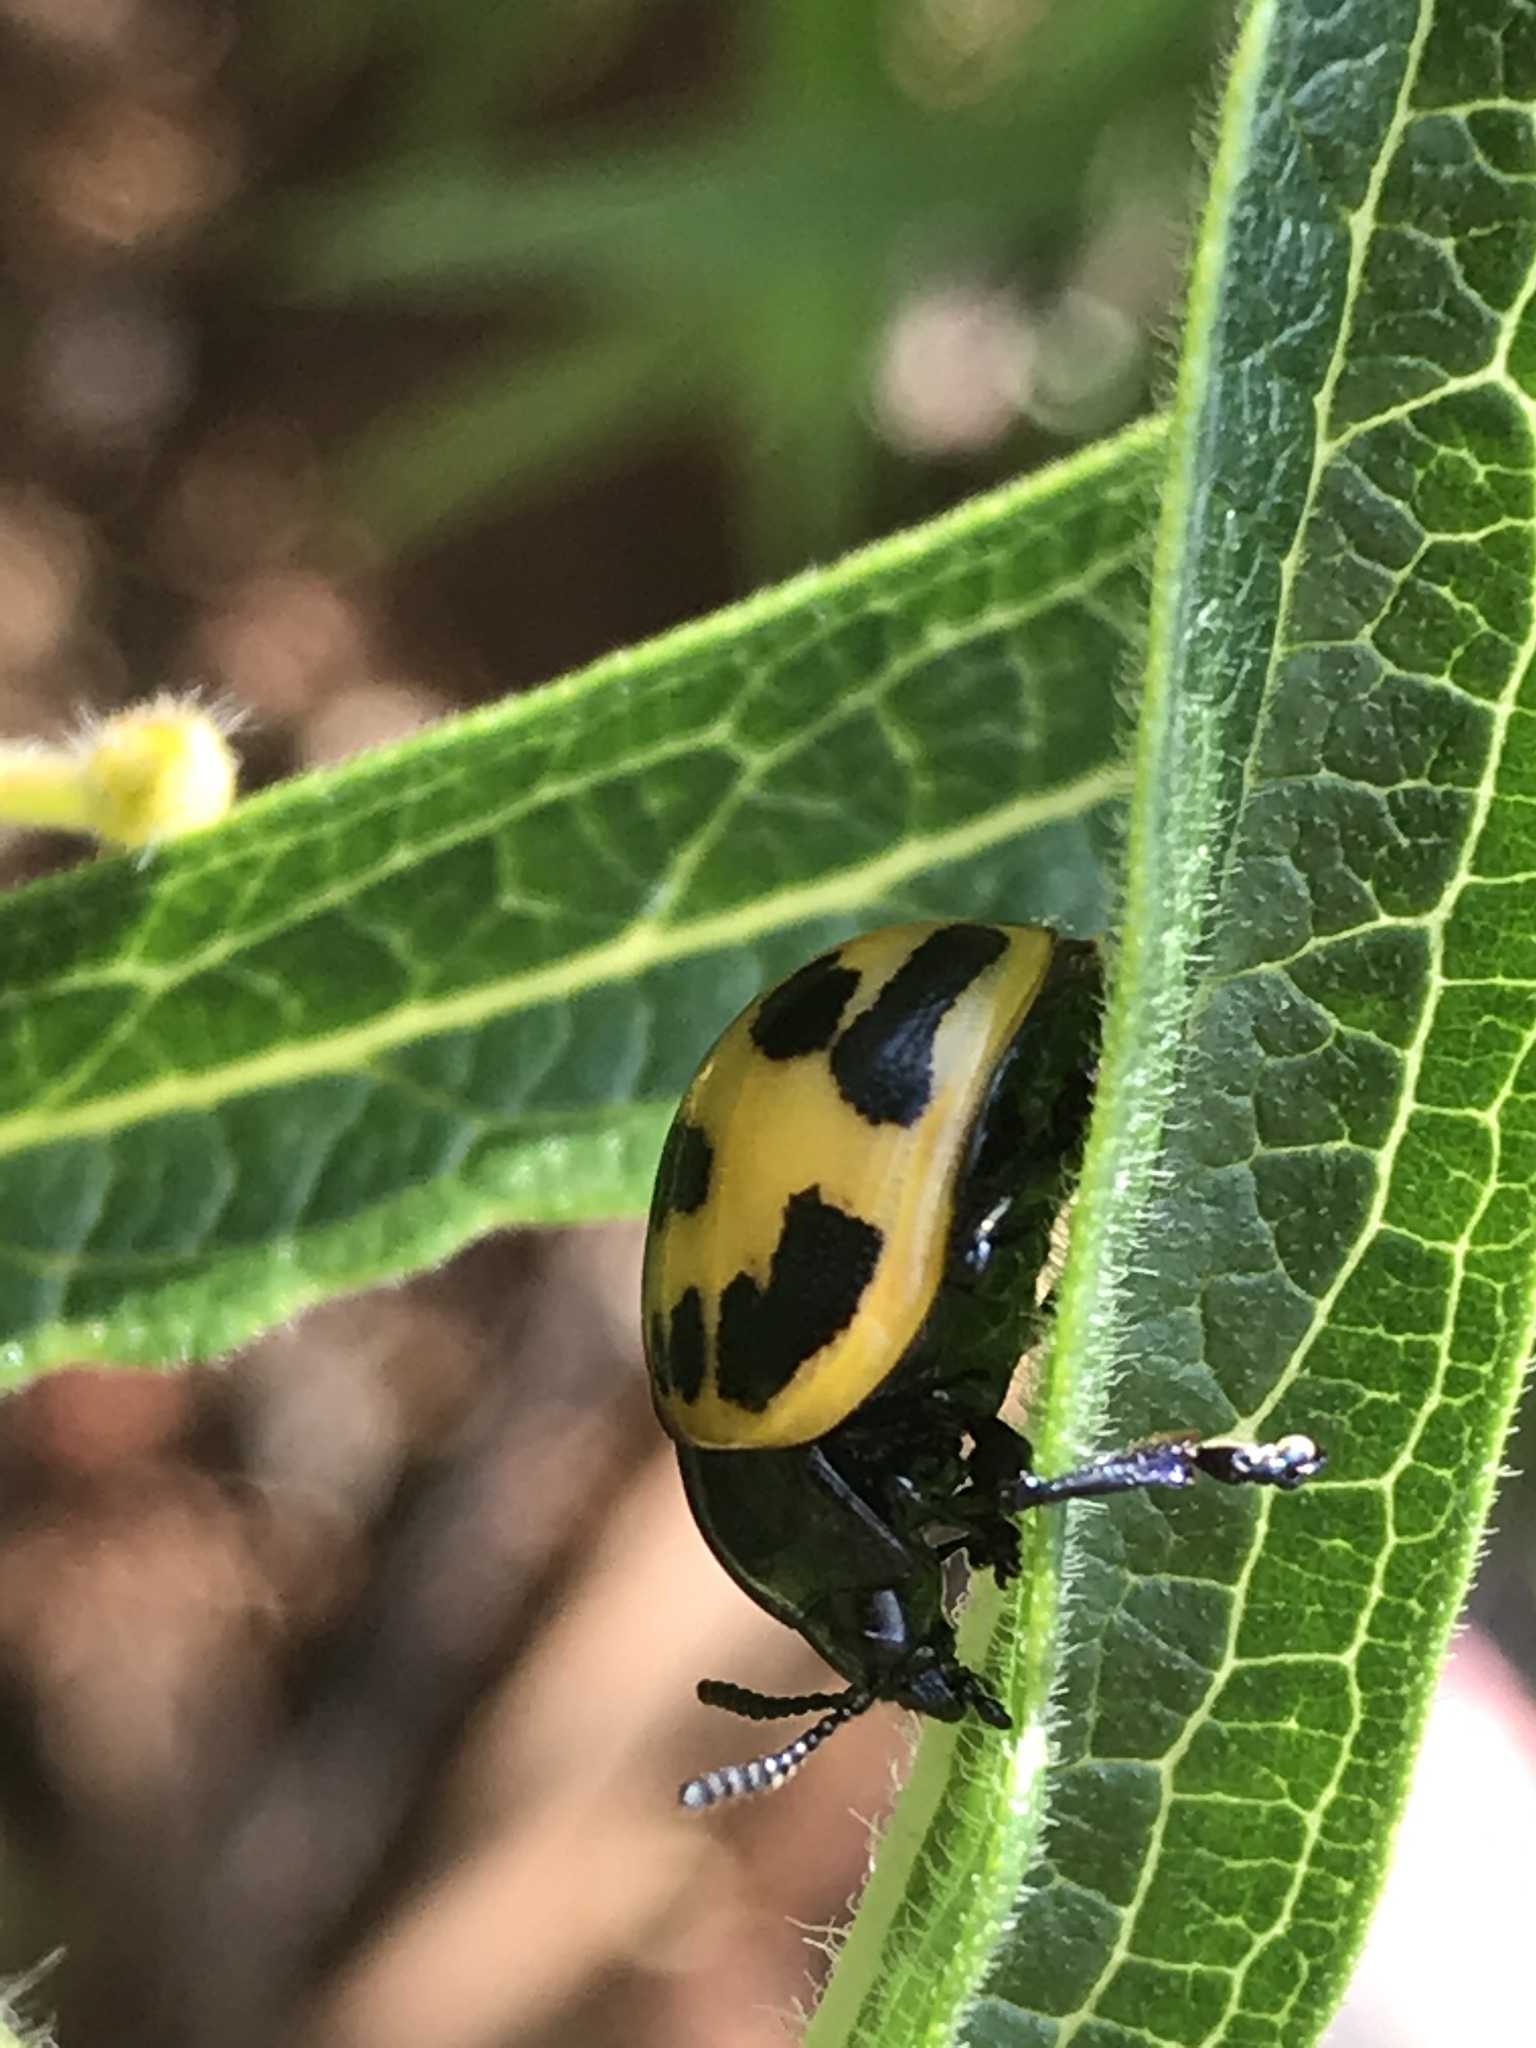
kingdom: Animalia
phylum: Arthropoda
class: Insecta
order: Coleoptera
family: Chrysomelidae
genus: Labidomera
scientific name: Labidomera clivicollis
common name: Swamp milkweed leaf beetle
